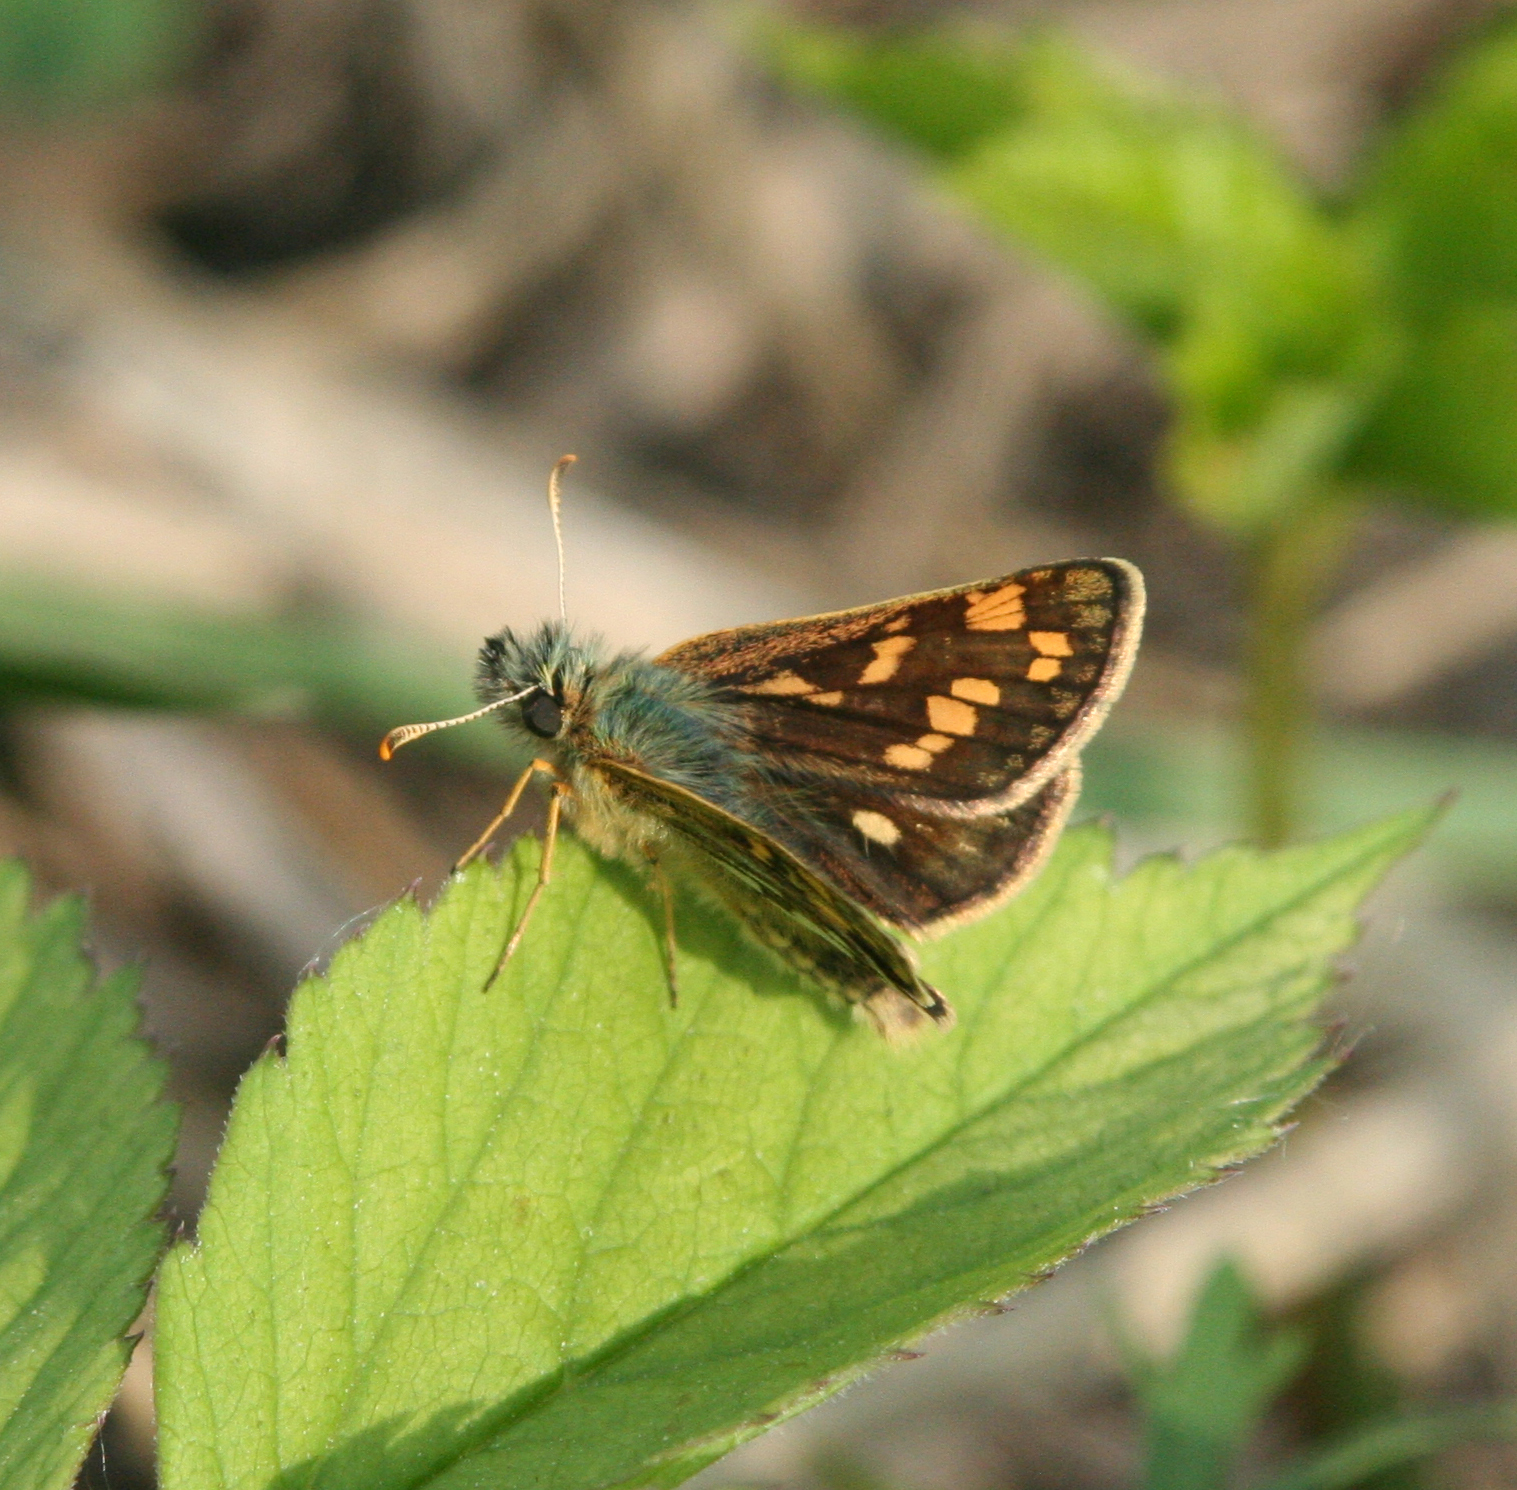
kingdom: Animalia
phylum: Arthropoda
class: Insecta
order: Lepidoptera
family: Hesperiidae
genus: Carterocephalus
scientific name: Carterocephalus palaemon
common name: Chequered skipper
